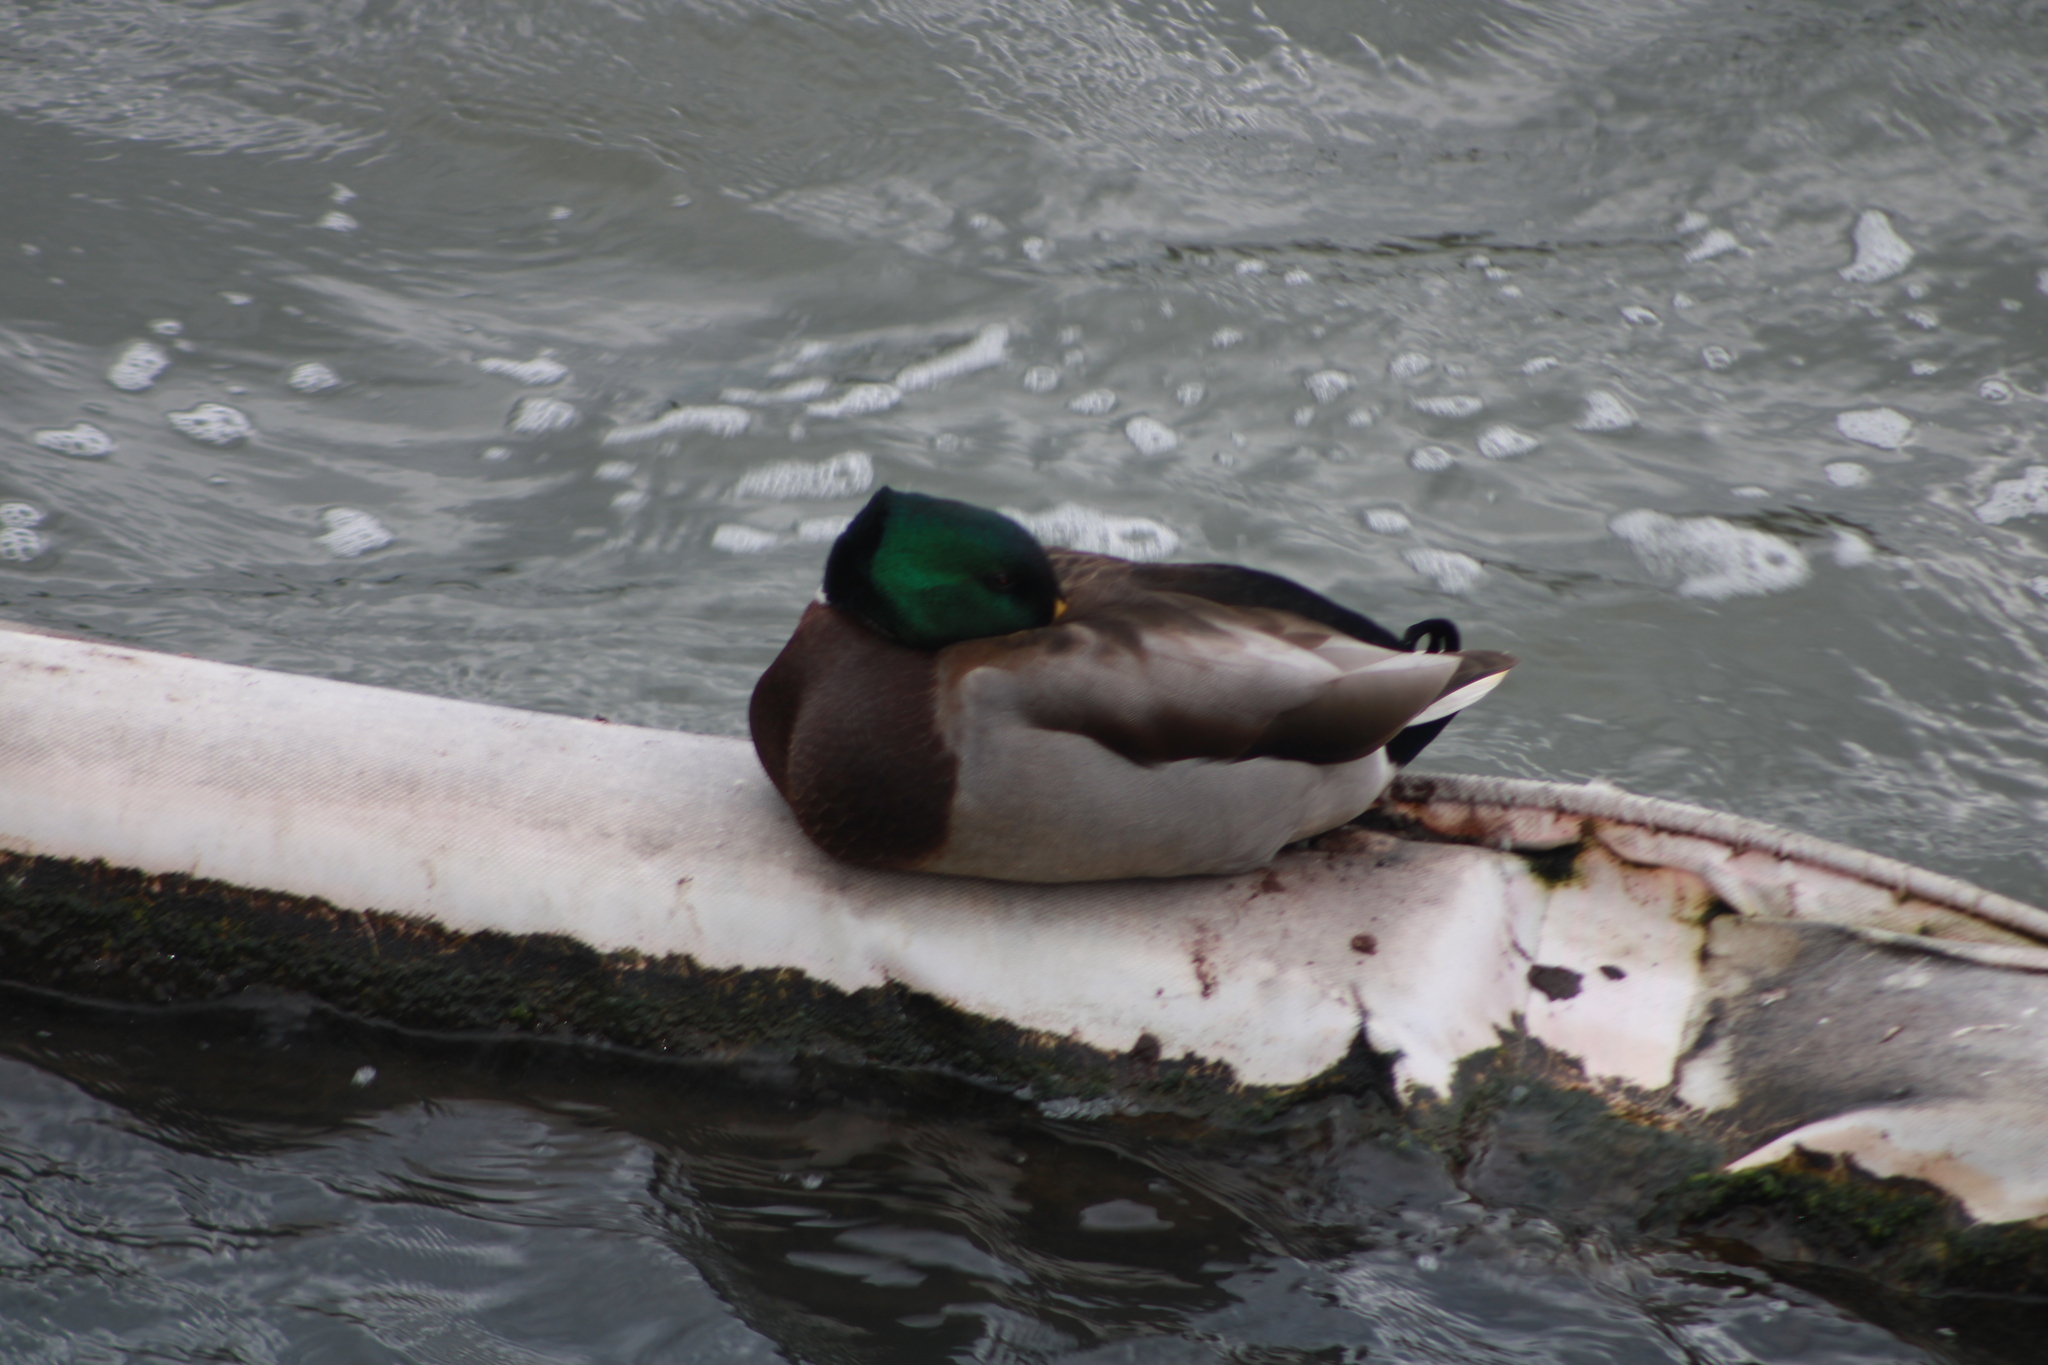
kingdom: Animalia
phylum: Chordata
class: Aves
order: Anseriformes
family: Anatidae
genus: Anas
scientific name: Anas platyrhynchos
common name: Mallard
